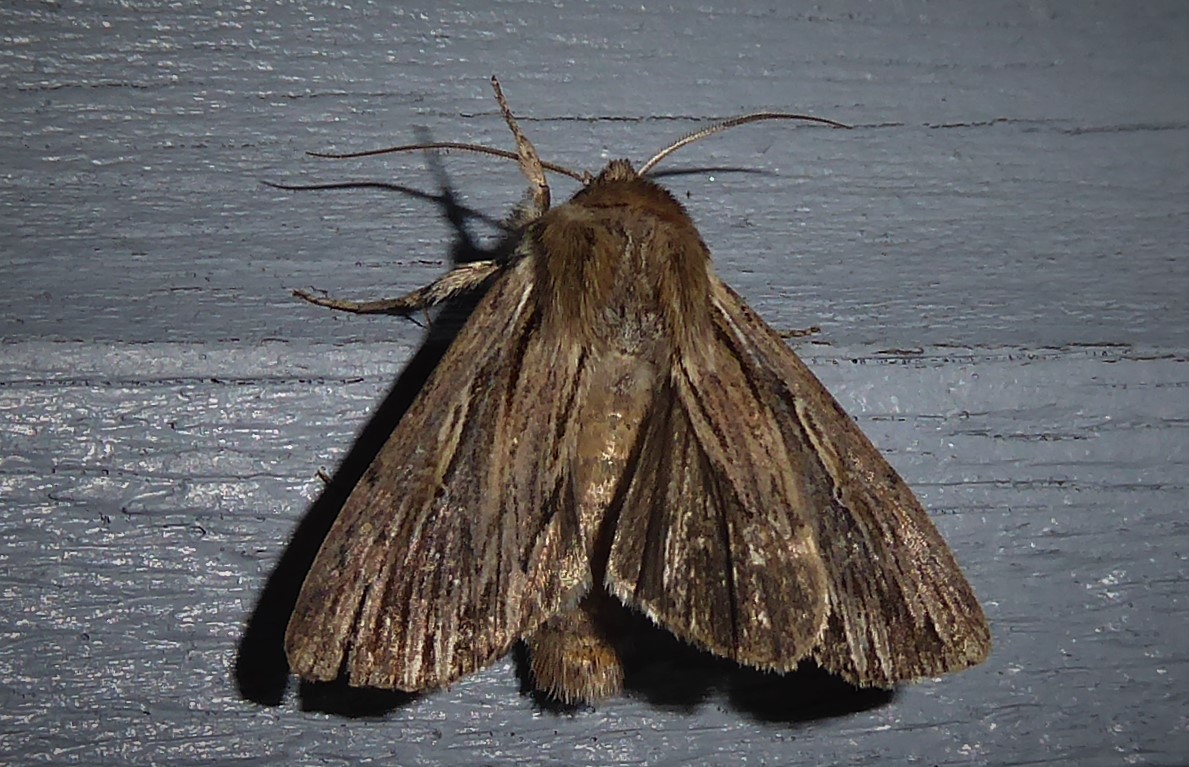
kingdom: Animalia
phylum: Arthropoda
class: Insecta
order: Lepidoptera
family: Noctuidae
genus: Persectania
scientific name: Persectania aversa
